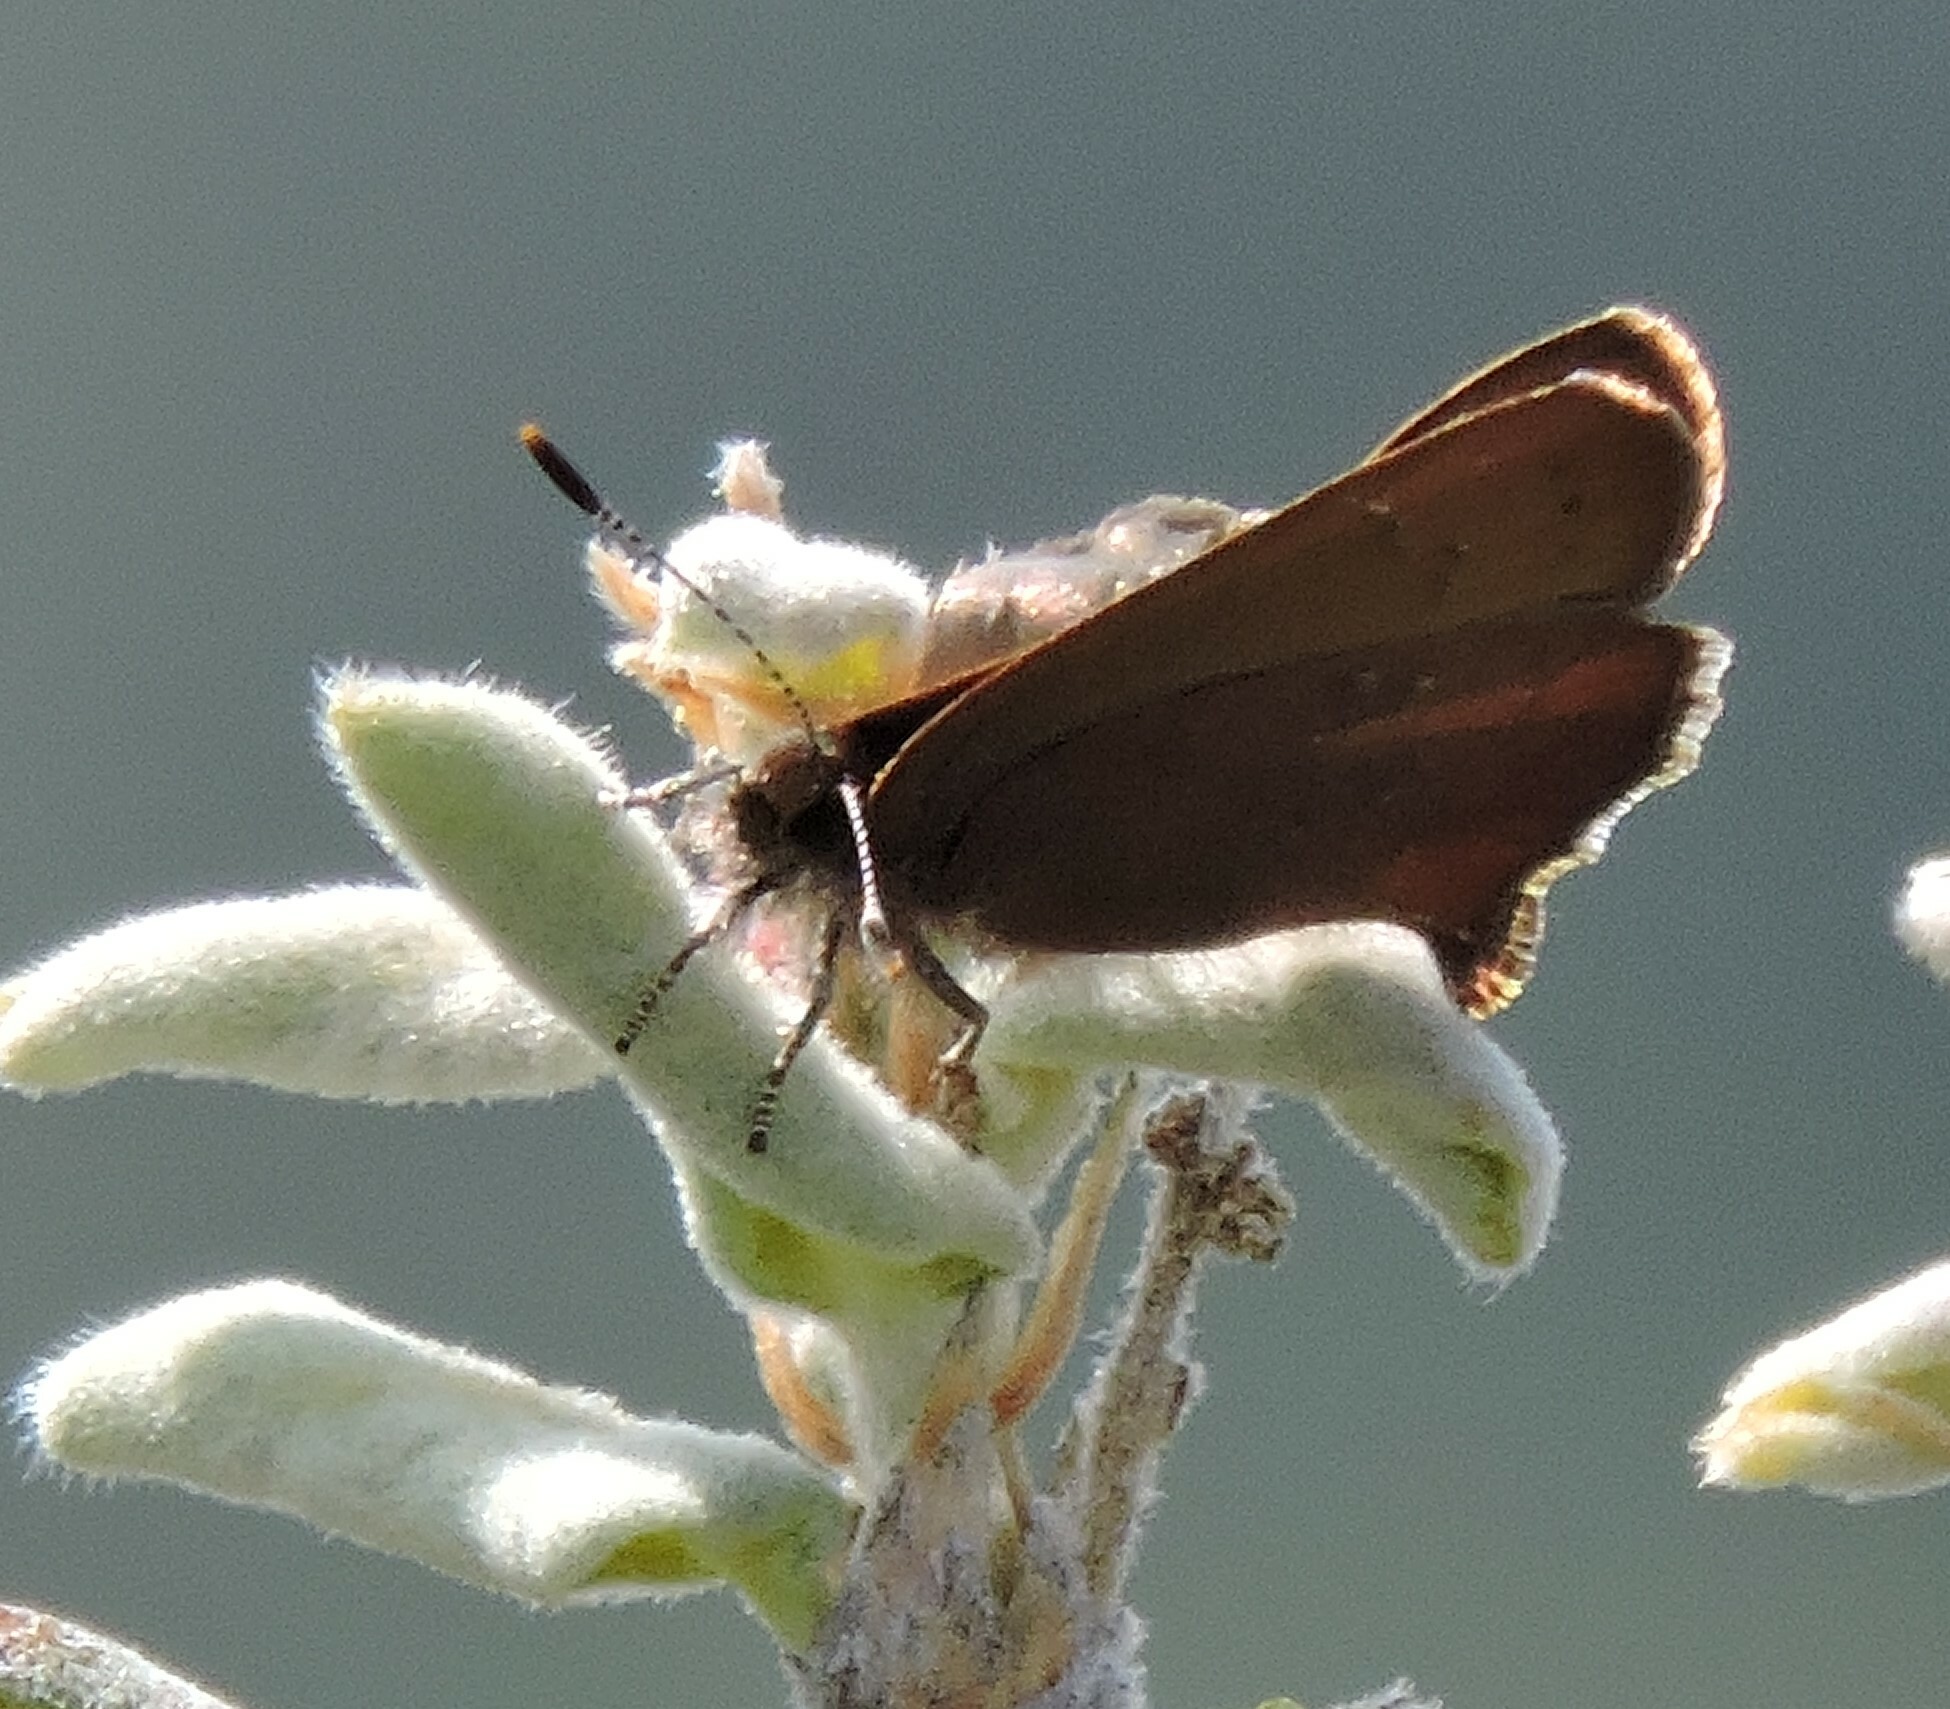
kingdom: Animalia
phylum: Arthropoda
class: Insecta
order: Lepidoptera
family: Lycaenidae
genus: Incisalia
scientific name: Incisalia irioides
